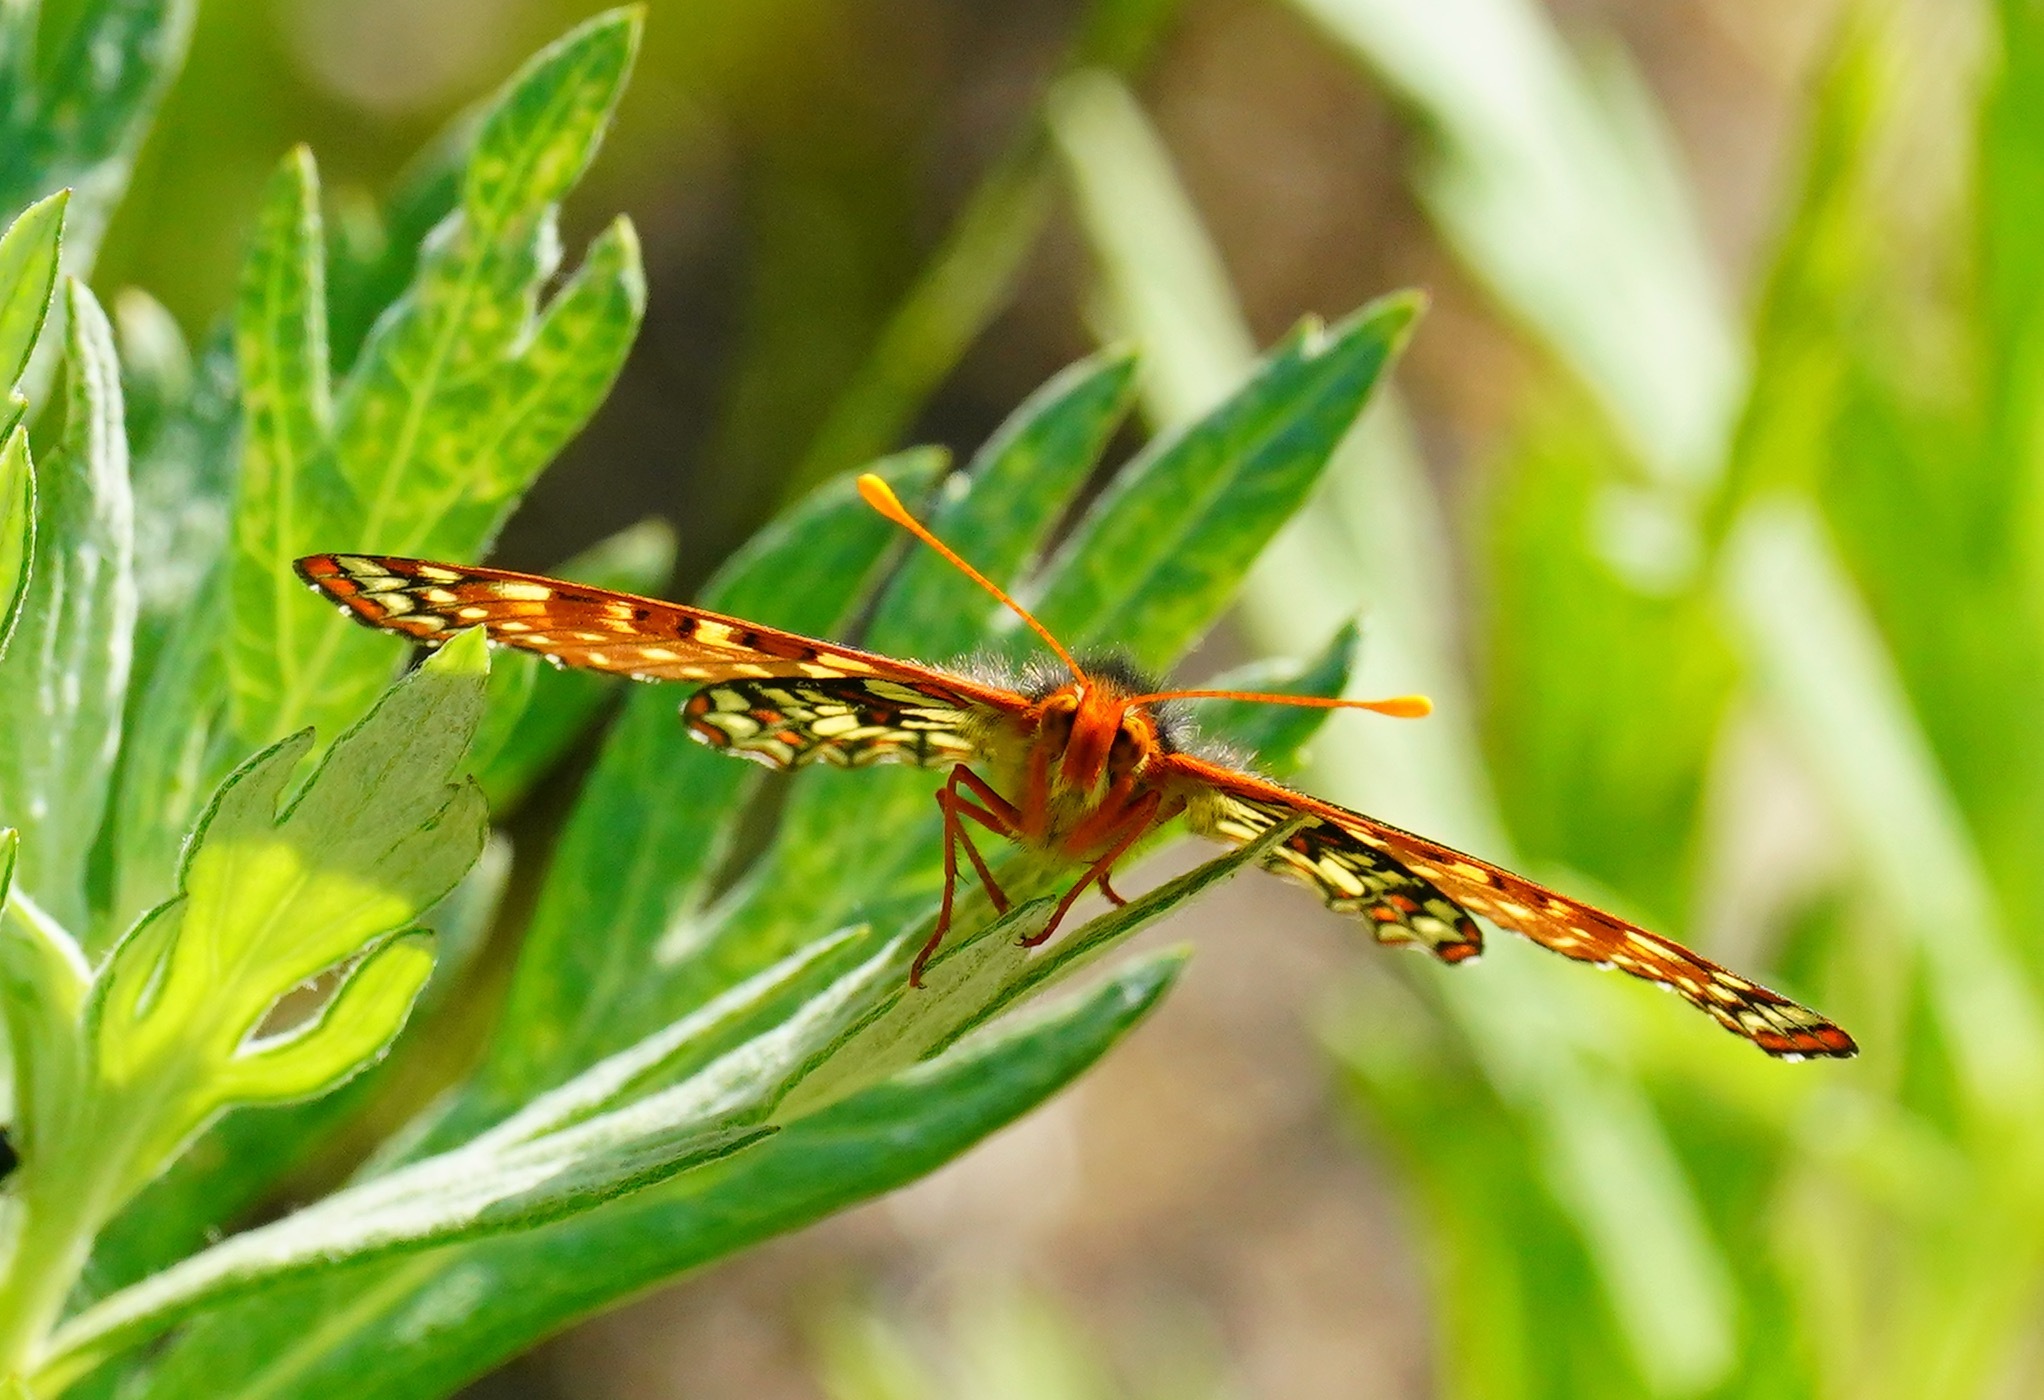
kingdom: Animalia
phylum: Arthropoda
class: Insecta
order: Lepidoptera
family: Nymphalidae
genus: Occidryas
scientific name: Occidryas chalcedona
